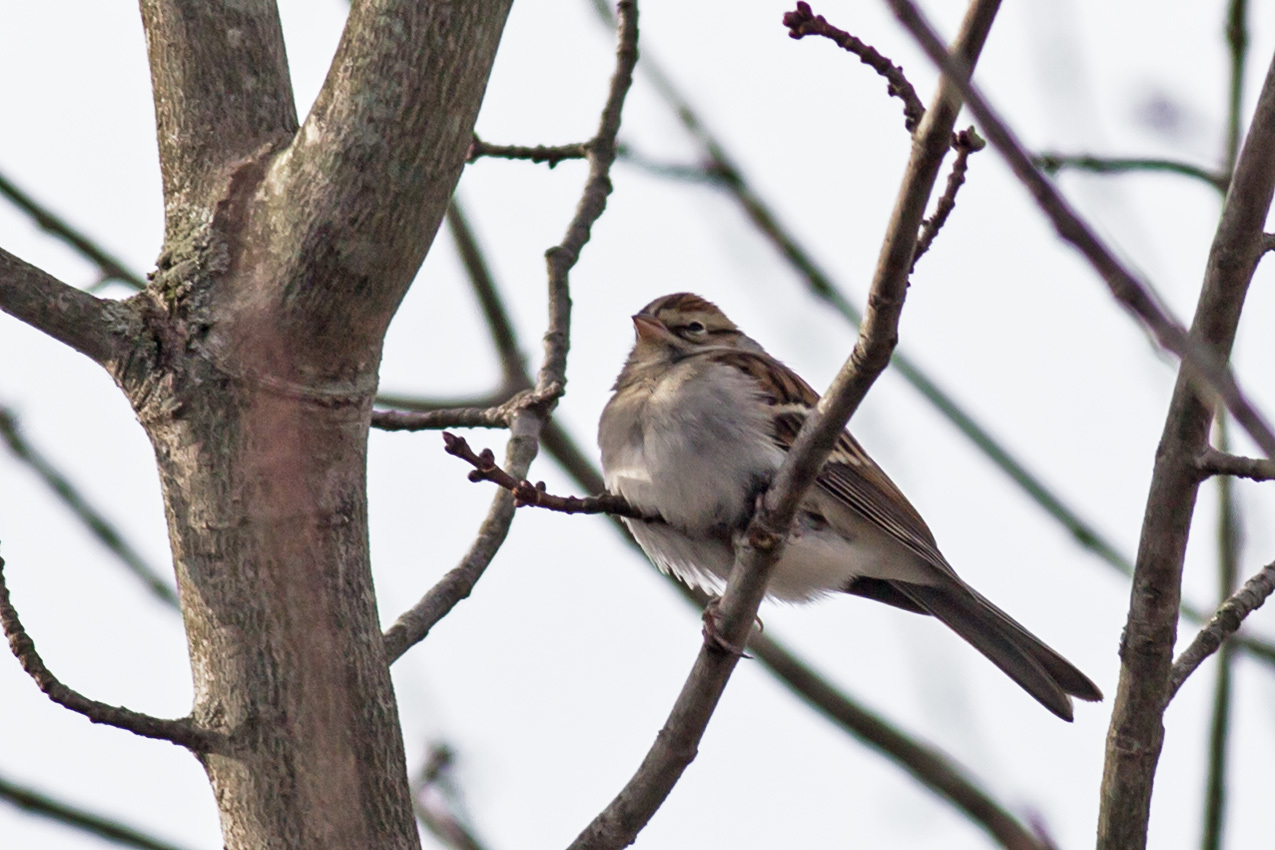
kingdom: Animalia
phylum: Chordata
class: Aves
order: Passeriformes
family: Passerellidae
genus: Spizella
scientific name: Spizella passerina
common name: Chipping sparrow
